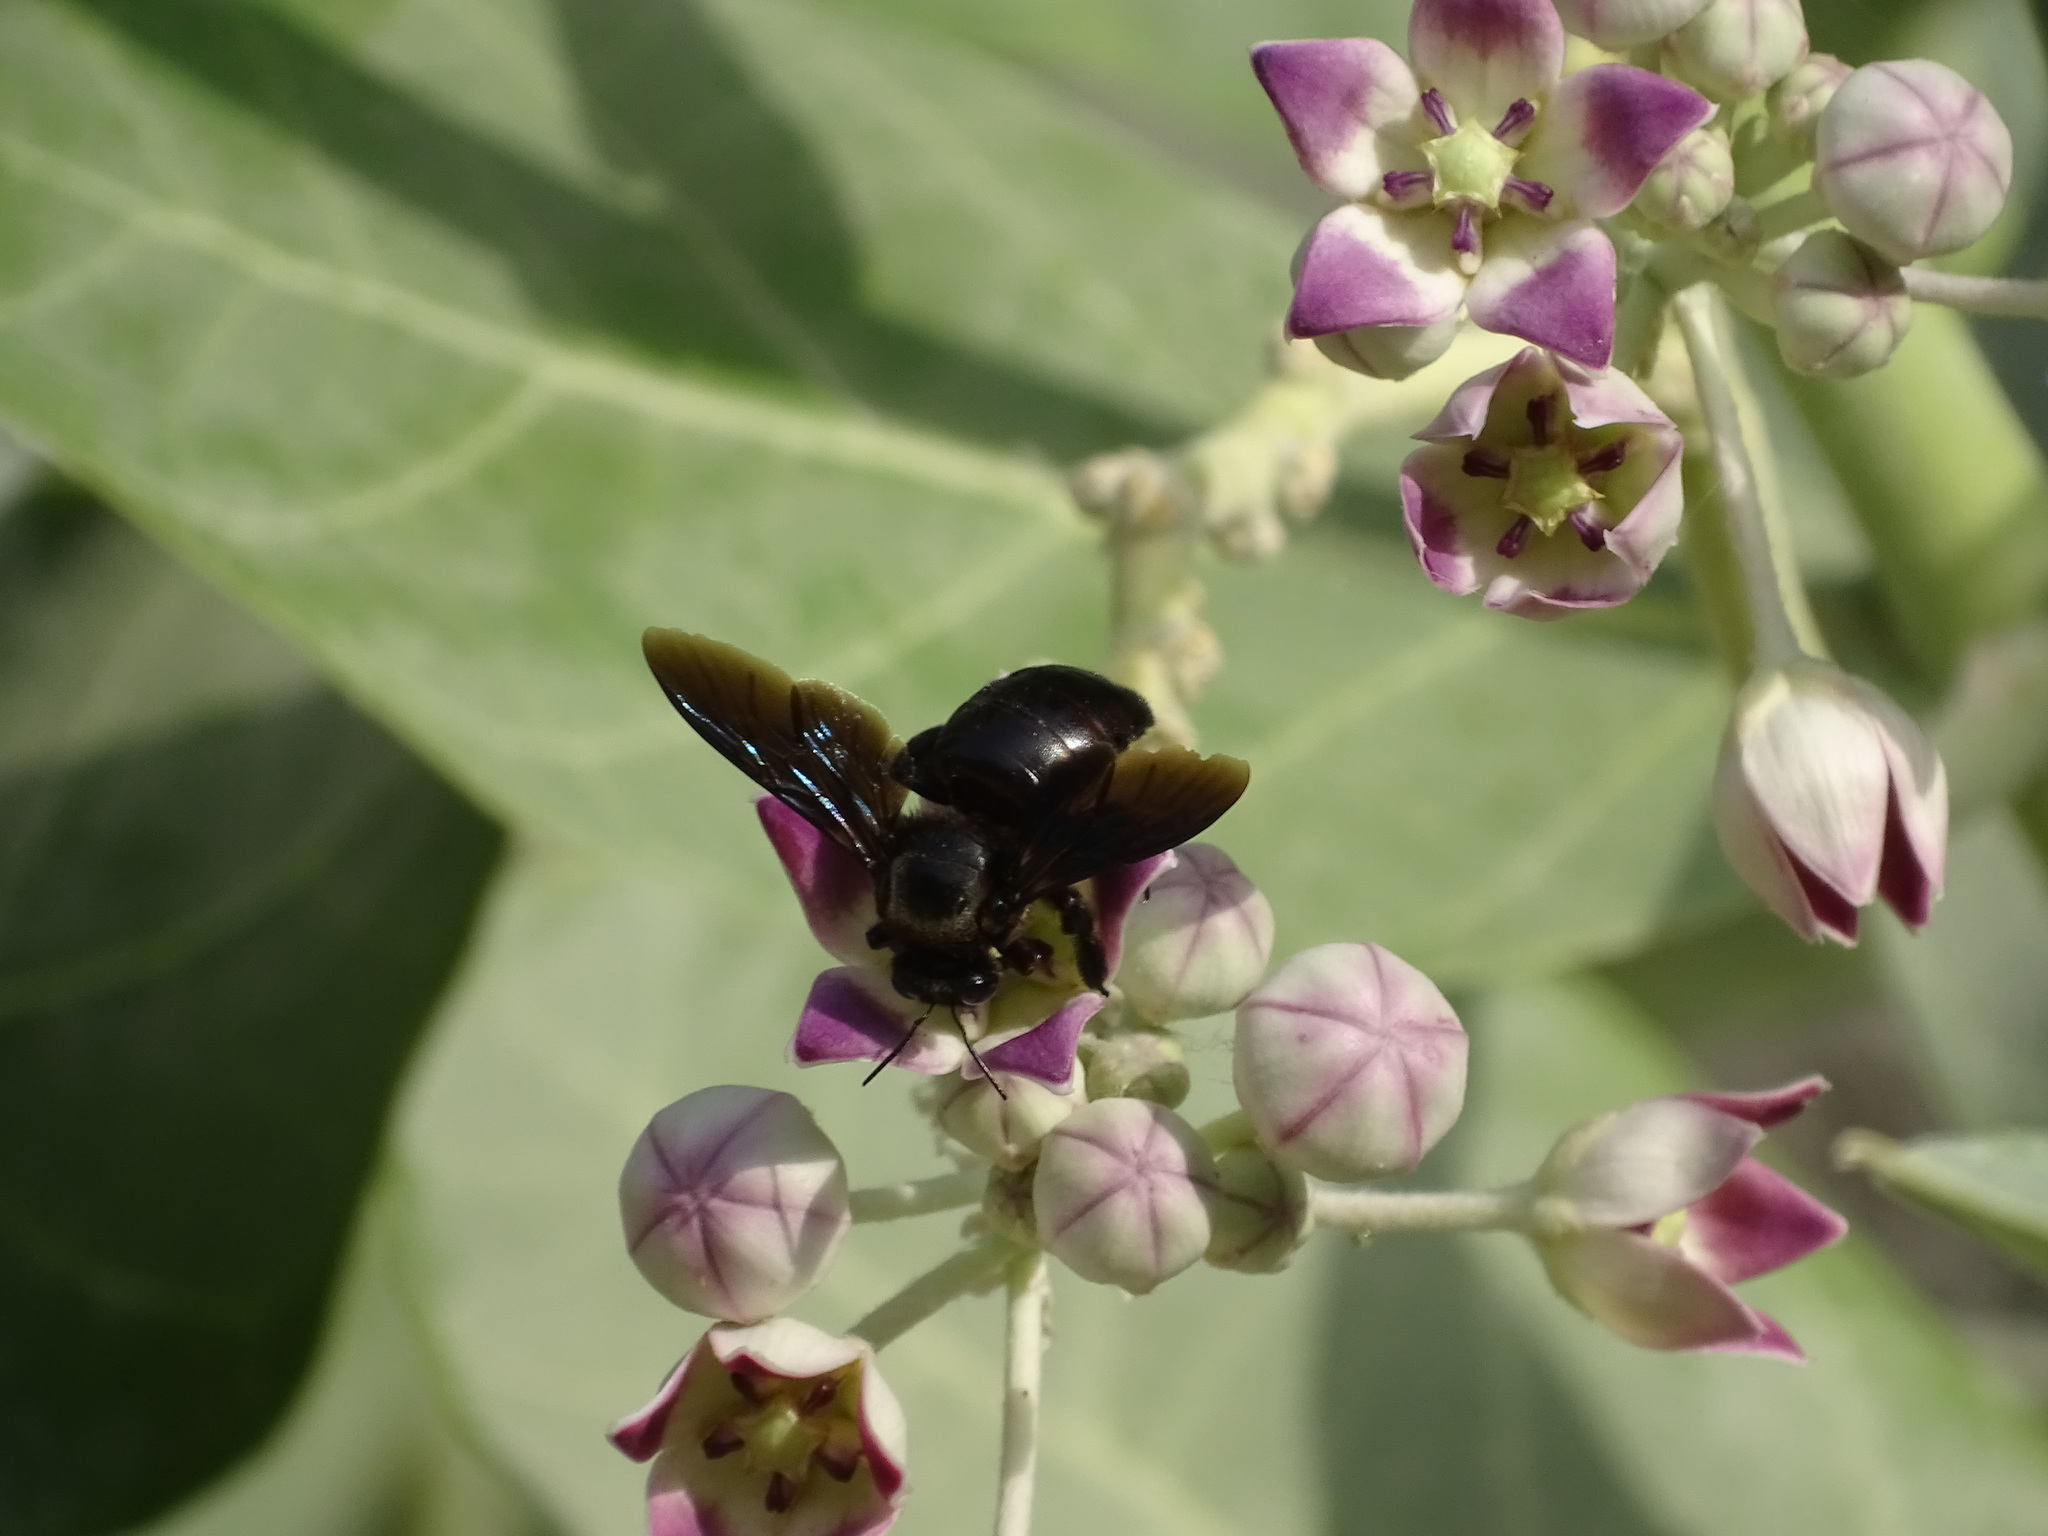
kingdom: Animalia
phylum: Arthropoda
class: Insecta
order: Hymenoptera
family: Apidae
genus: Xylocopa
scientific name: Xylocopa sulcatipes
